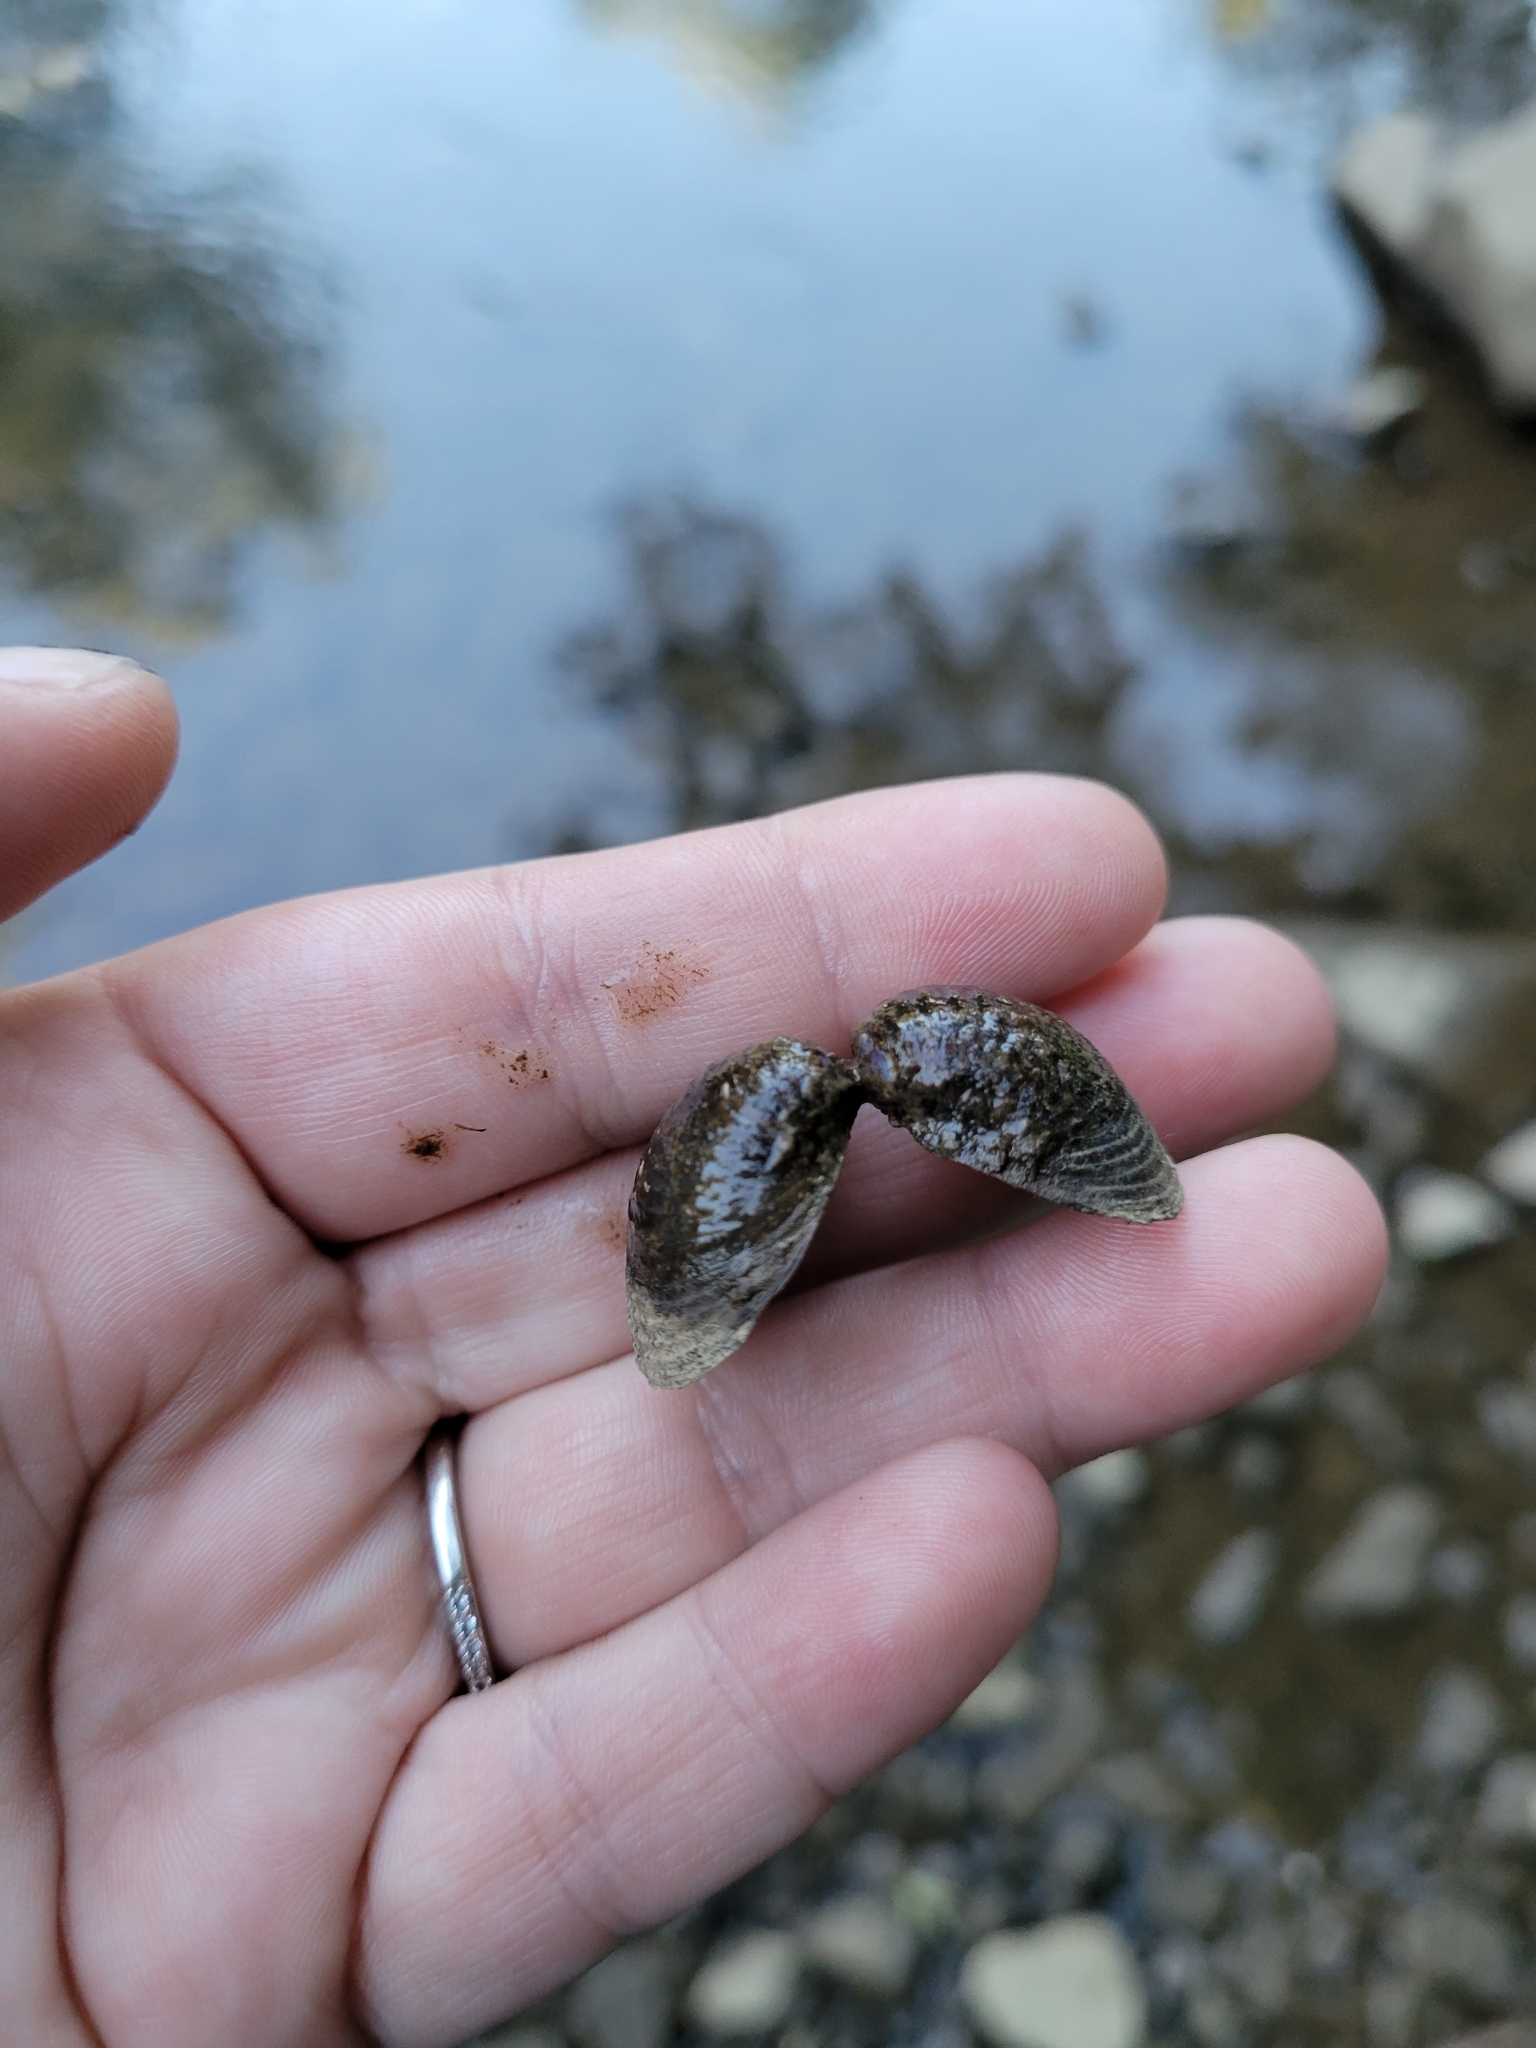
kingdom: Animalia
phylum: Mollusca
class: Bivalvia
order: Venerida
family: Cyrenidae
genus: Corbicula
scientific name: Corbicula fluminea
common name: Asian clam
